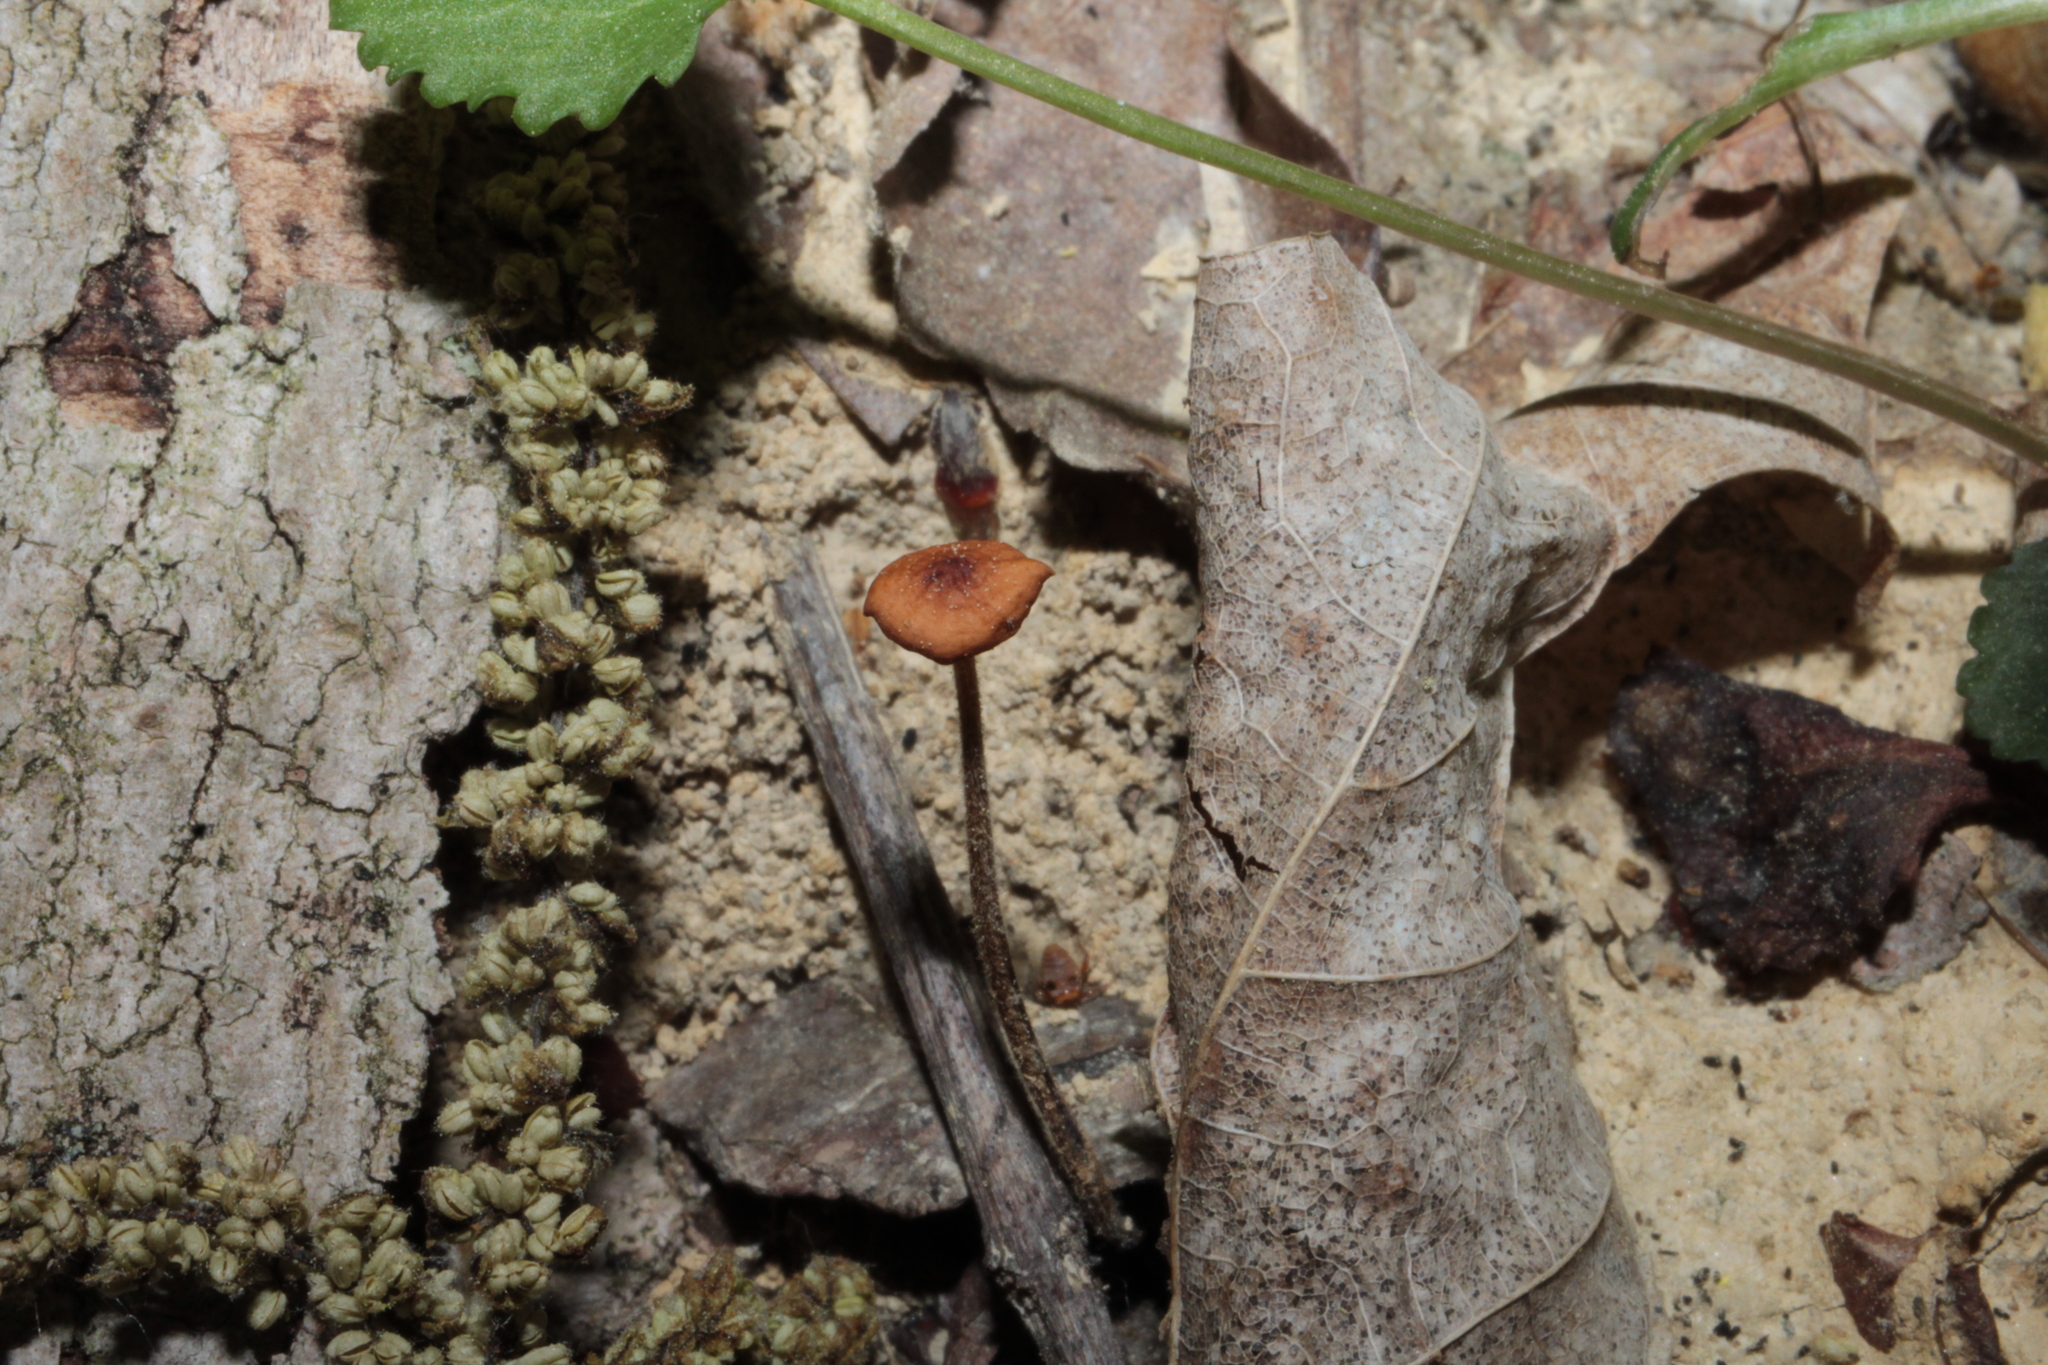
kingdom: Fungi
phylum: Basidiomycota
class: Agaricomycetes
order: Agaricales
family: Physalacriaceae
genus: Rhizomarasmius
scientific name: Rhizomarasmius pyrrhocephalus
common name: Hairy long stem marasmius
